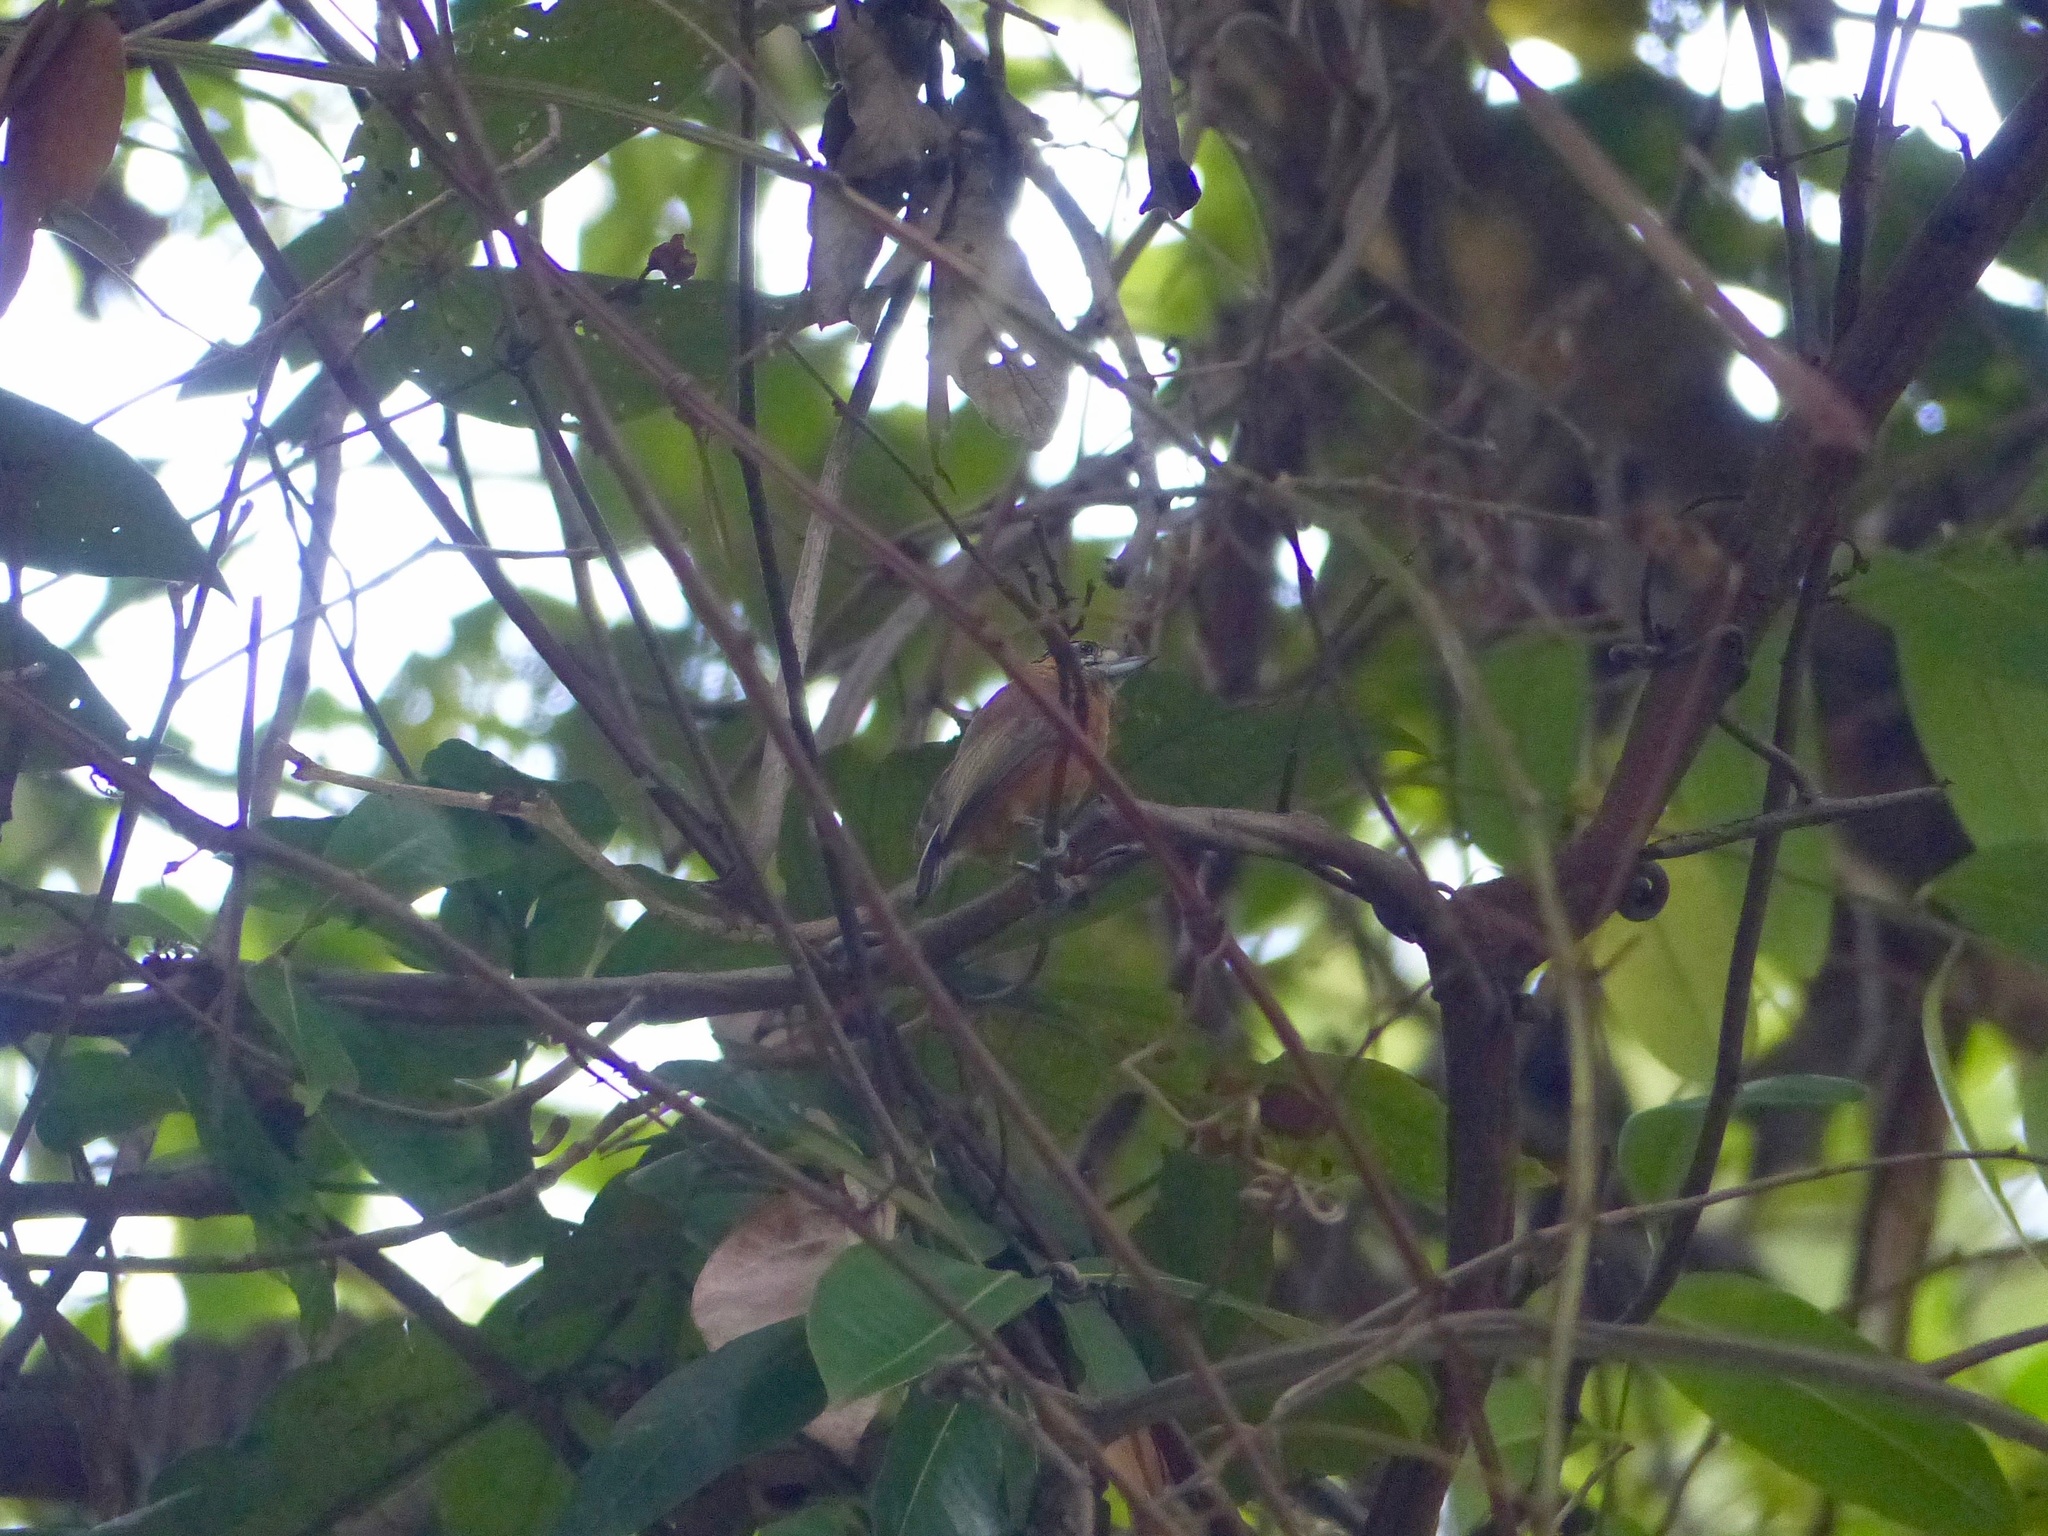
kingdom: Animalia
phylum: Chordata
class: Aves
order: Piciformes
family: Picidae
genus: Picumnus
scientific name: Picumnus limae
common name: Ochraceous piculet
